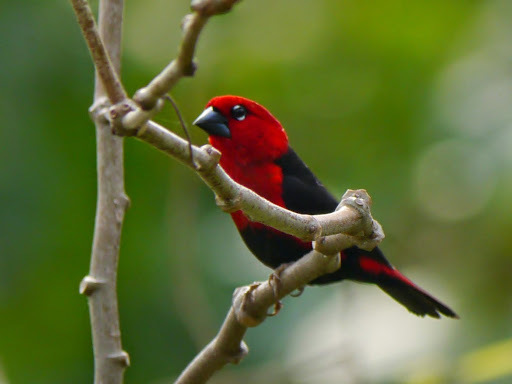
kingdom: Animalia
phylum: Chordata
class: Aves
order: Passeriformes
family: Estrildidae
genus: Pyrenestes
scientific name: Pyrenestes ostrinus
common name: Black-bellied seedcracker
